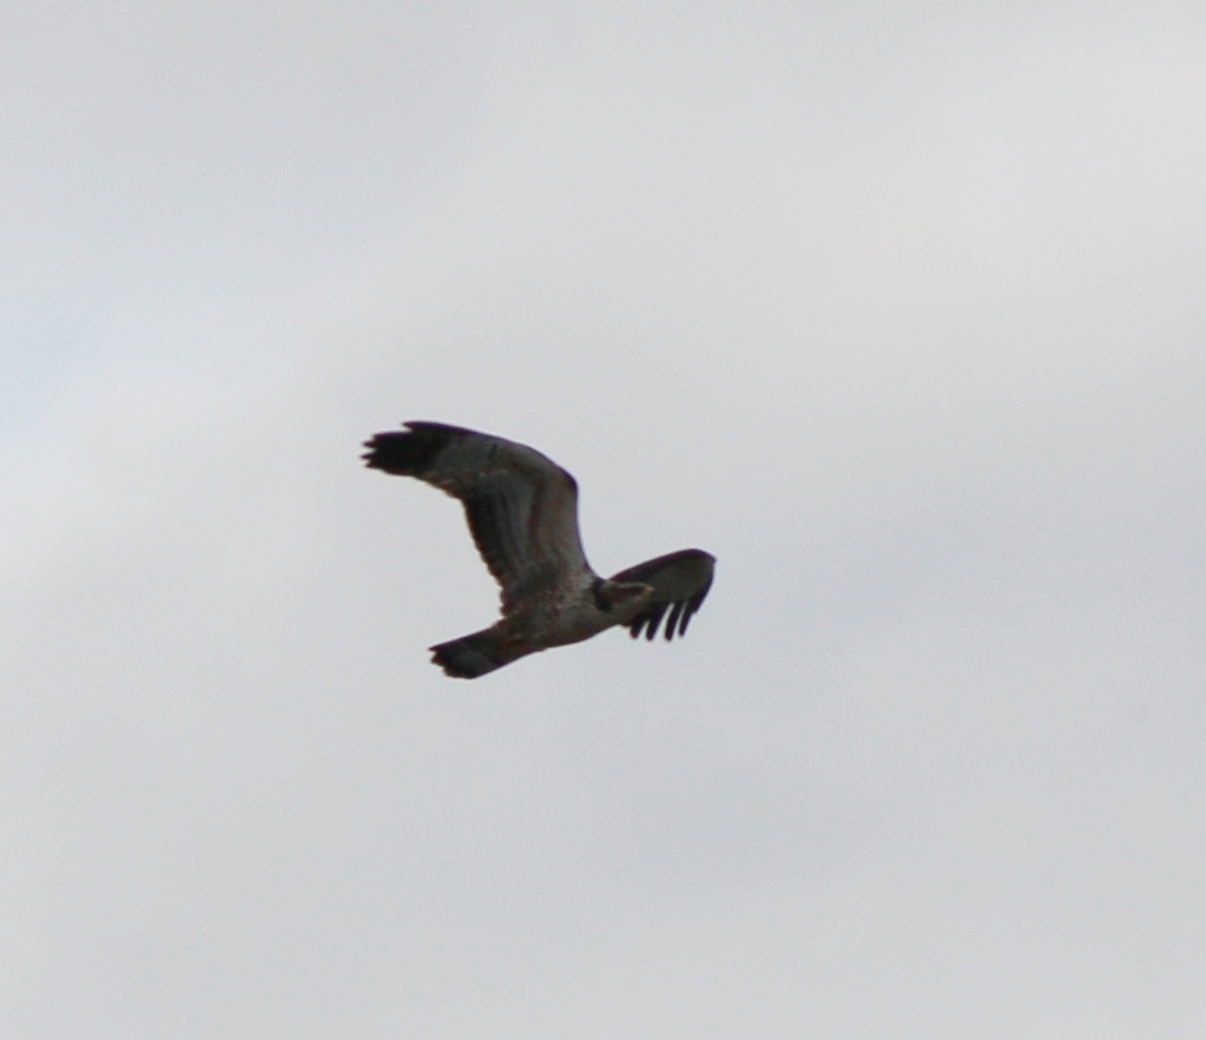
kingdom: Animalia
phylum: Chordata
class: Aves
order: Accipitriformes
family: Accipitridae
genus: Pernis
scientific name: Pernis ptilorhynchus
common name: Crested honey buzzard
